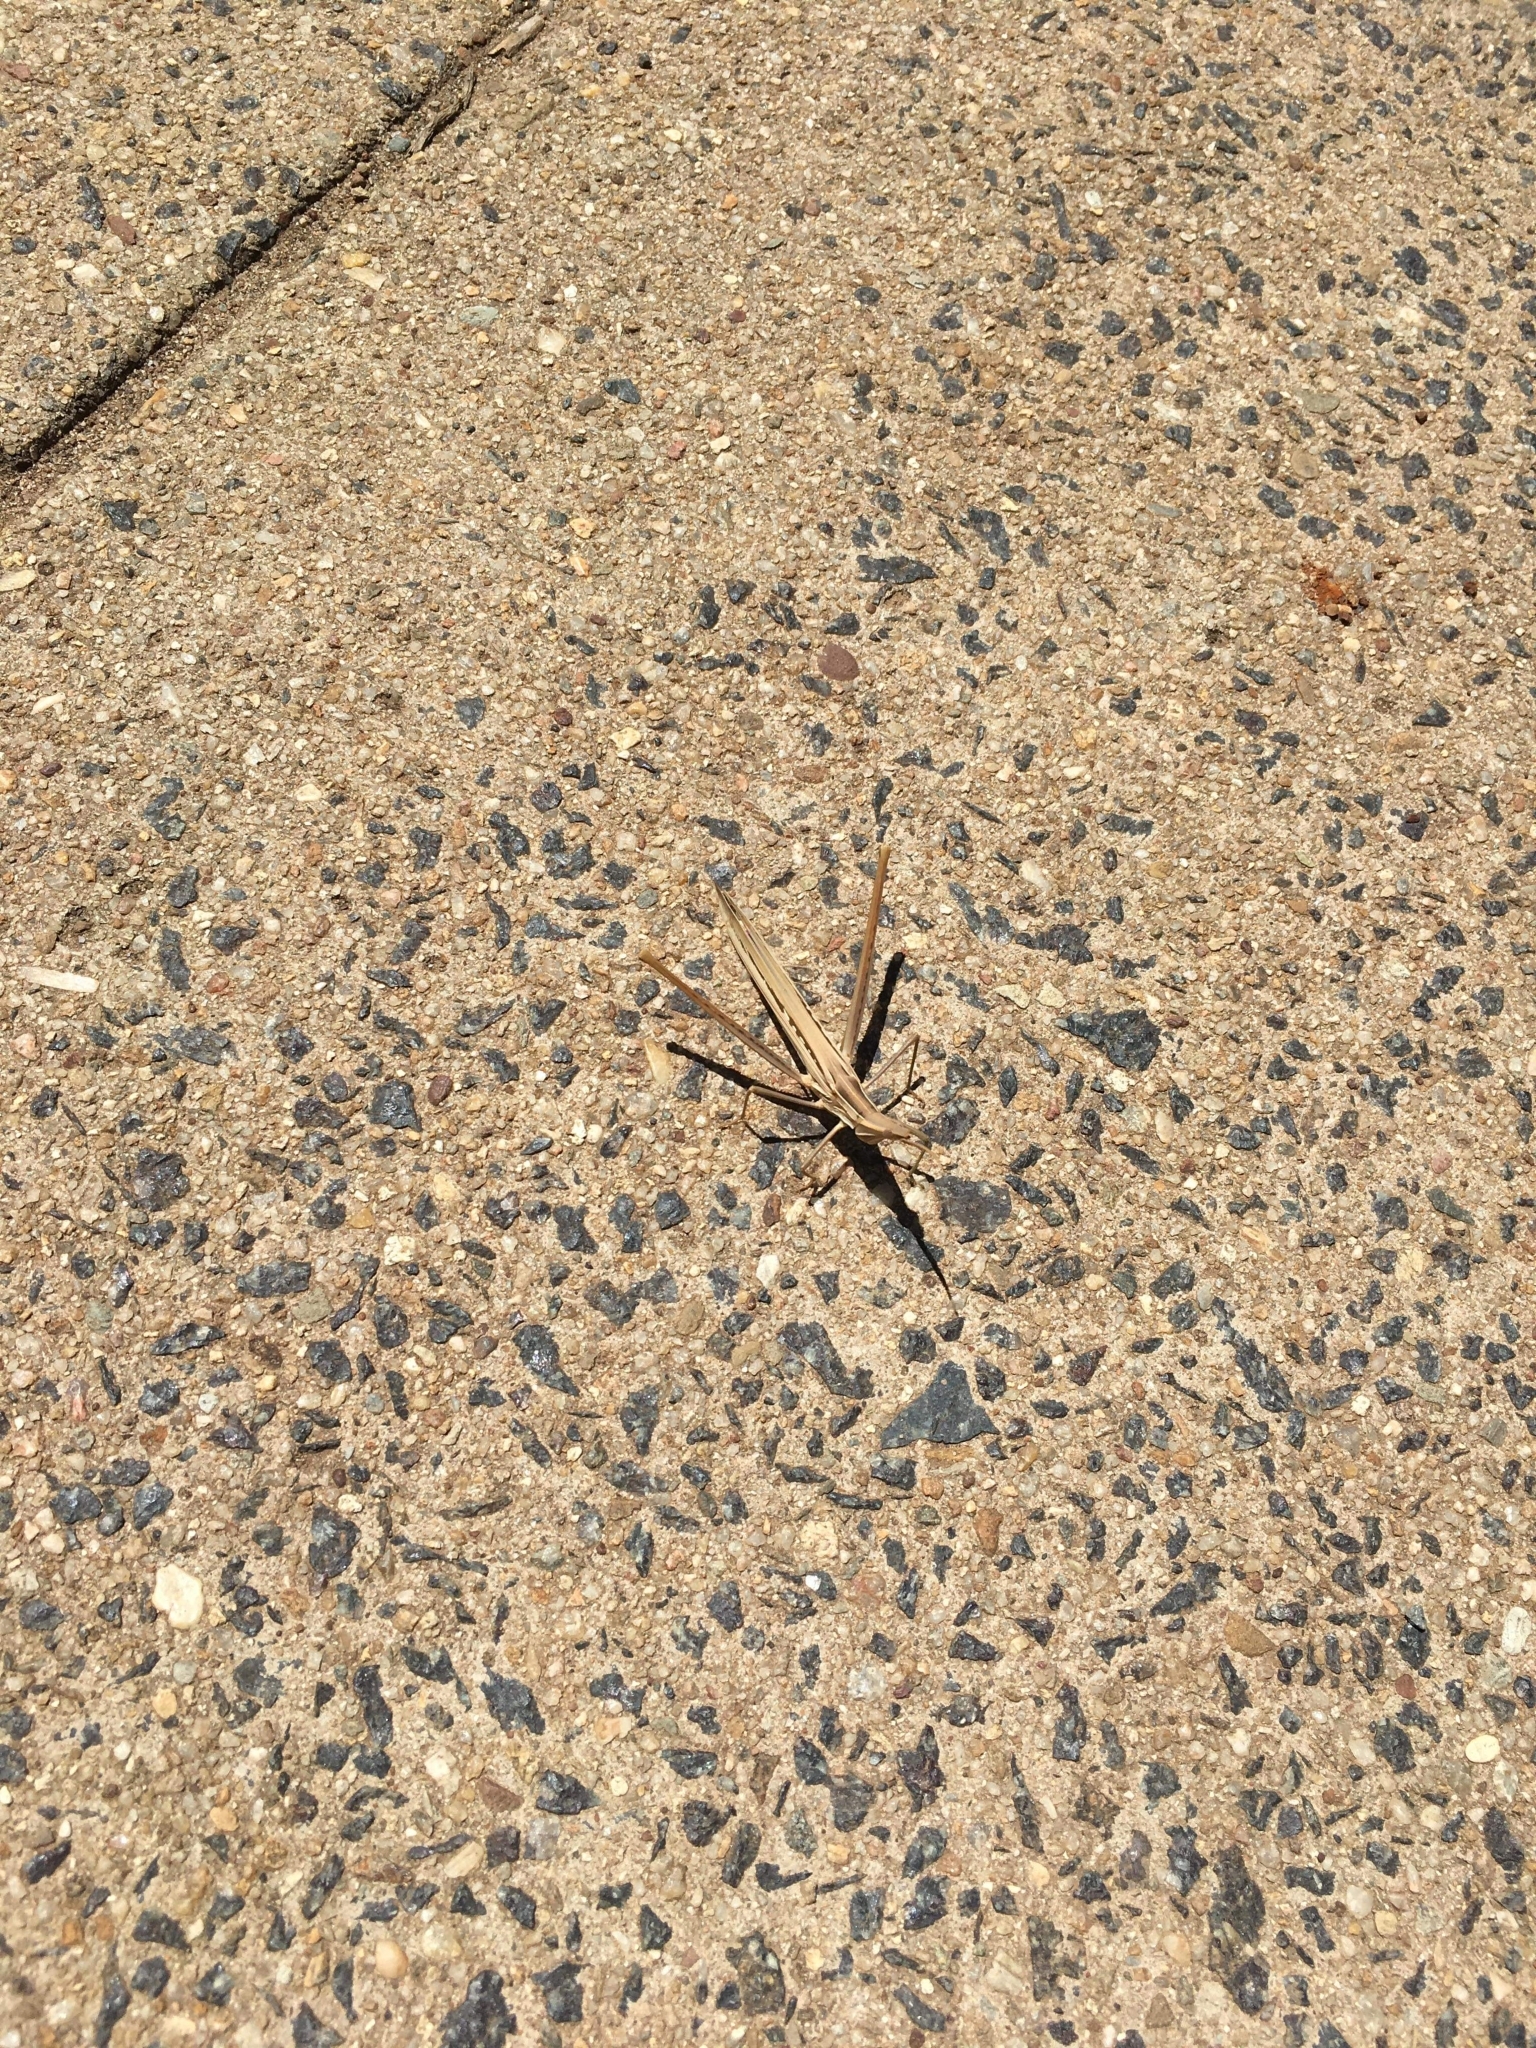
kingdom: Animalia
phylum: Arthropoda
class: Insecta
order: Orthoptera
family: Acrididae
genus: Acrida
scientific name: Acrida conica
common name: Giant green slantface
